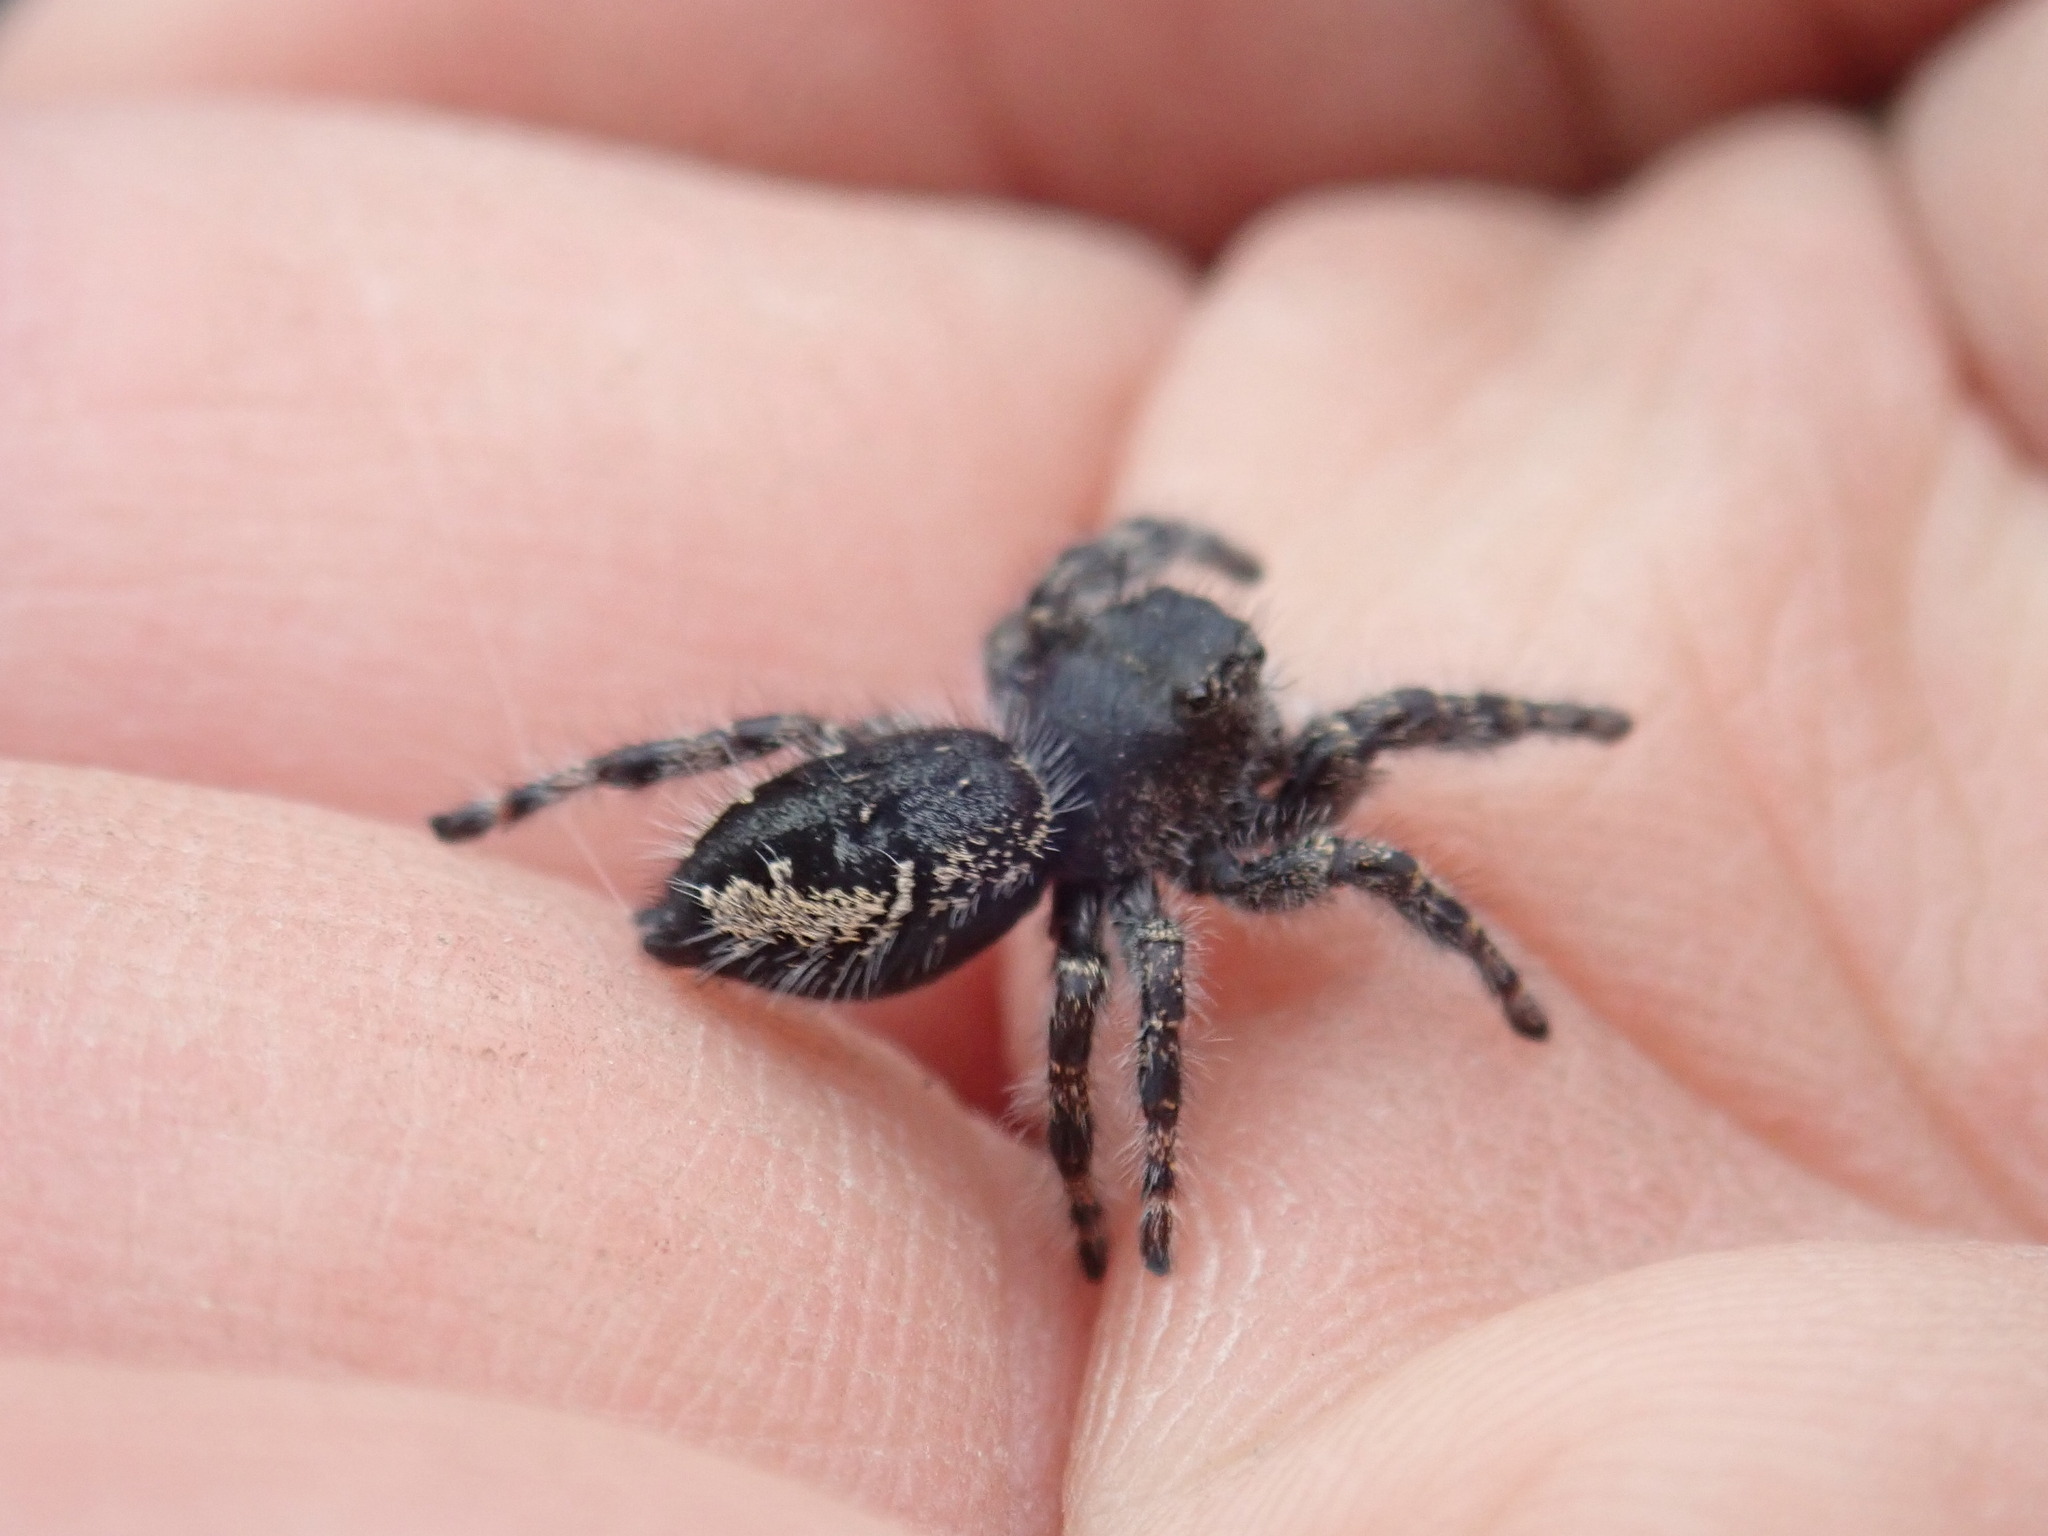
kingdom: Animalia
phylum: Arthropoda
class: Arachnida
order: Araneae
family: Salticidae
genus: Phidippus
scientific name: Phidippus borealis
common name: Boreal tufted jumping spider
